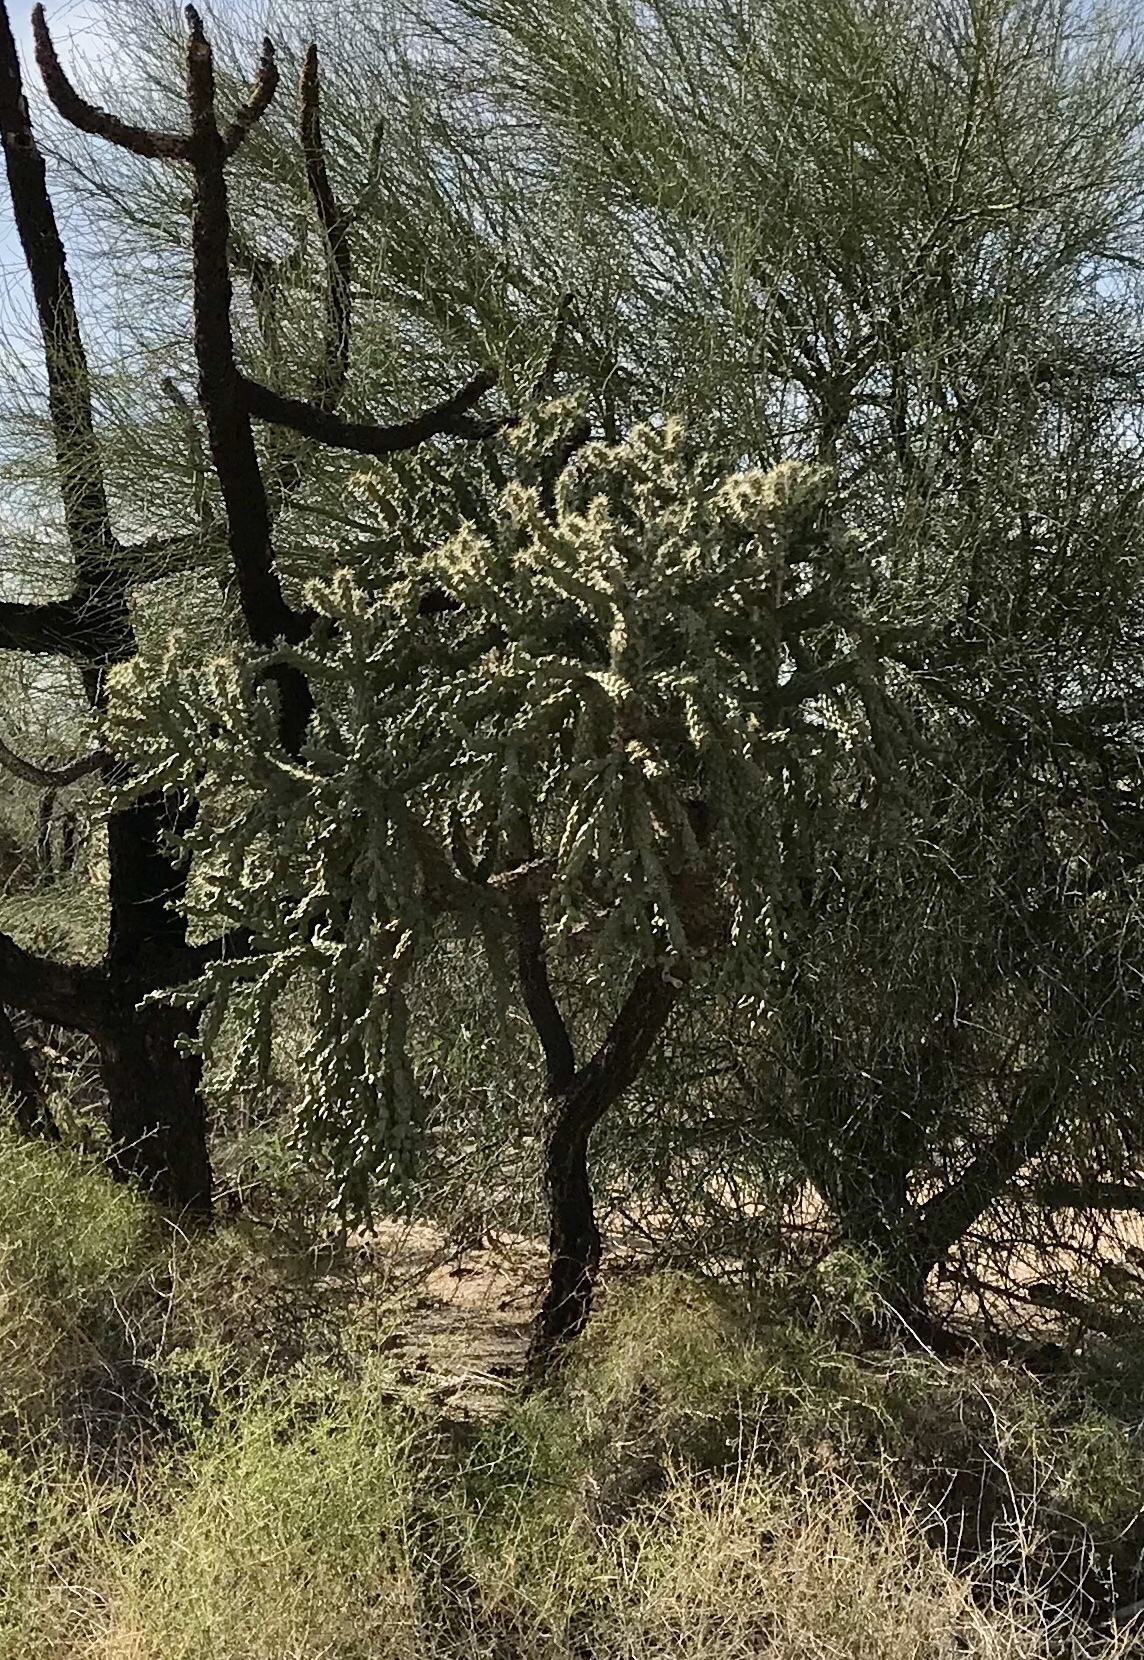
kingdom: Plantae
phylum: Tracheophyta
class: Magnoliopsida
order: Caryophyllales
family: Cactaceae
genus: Cylindropuntia
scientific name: Cylindropuntia fulgida
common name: Jumping cholla
